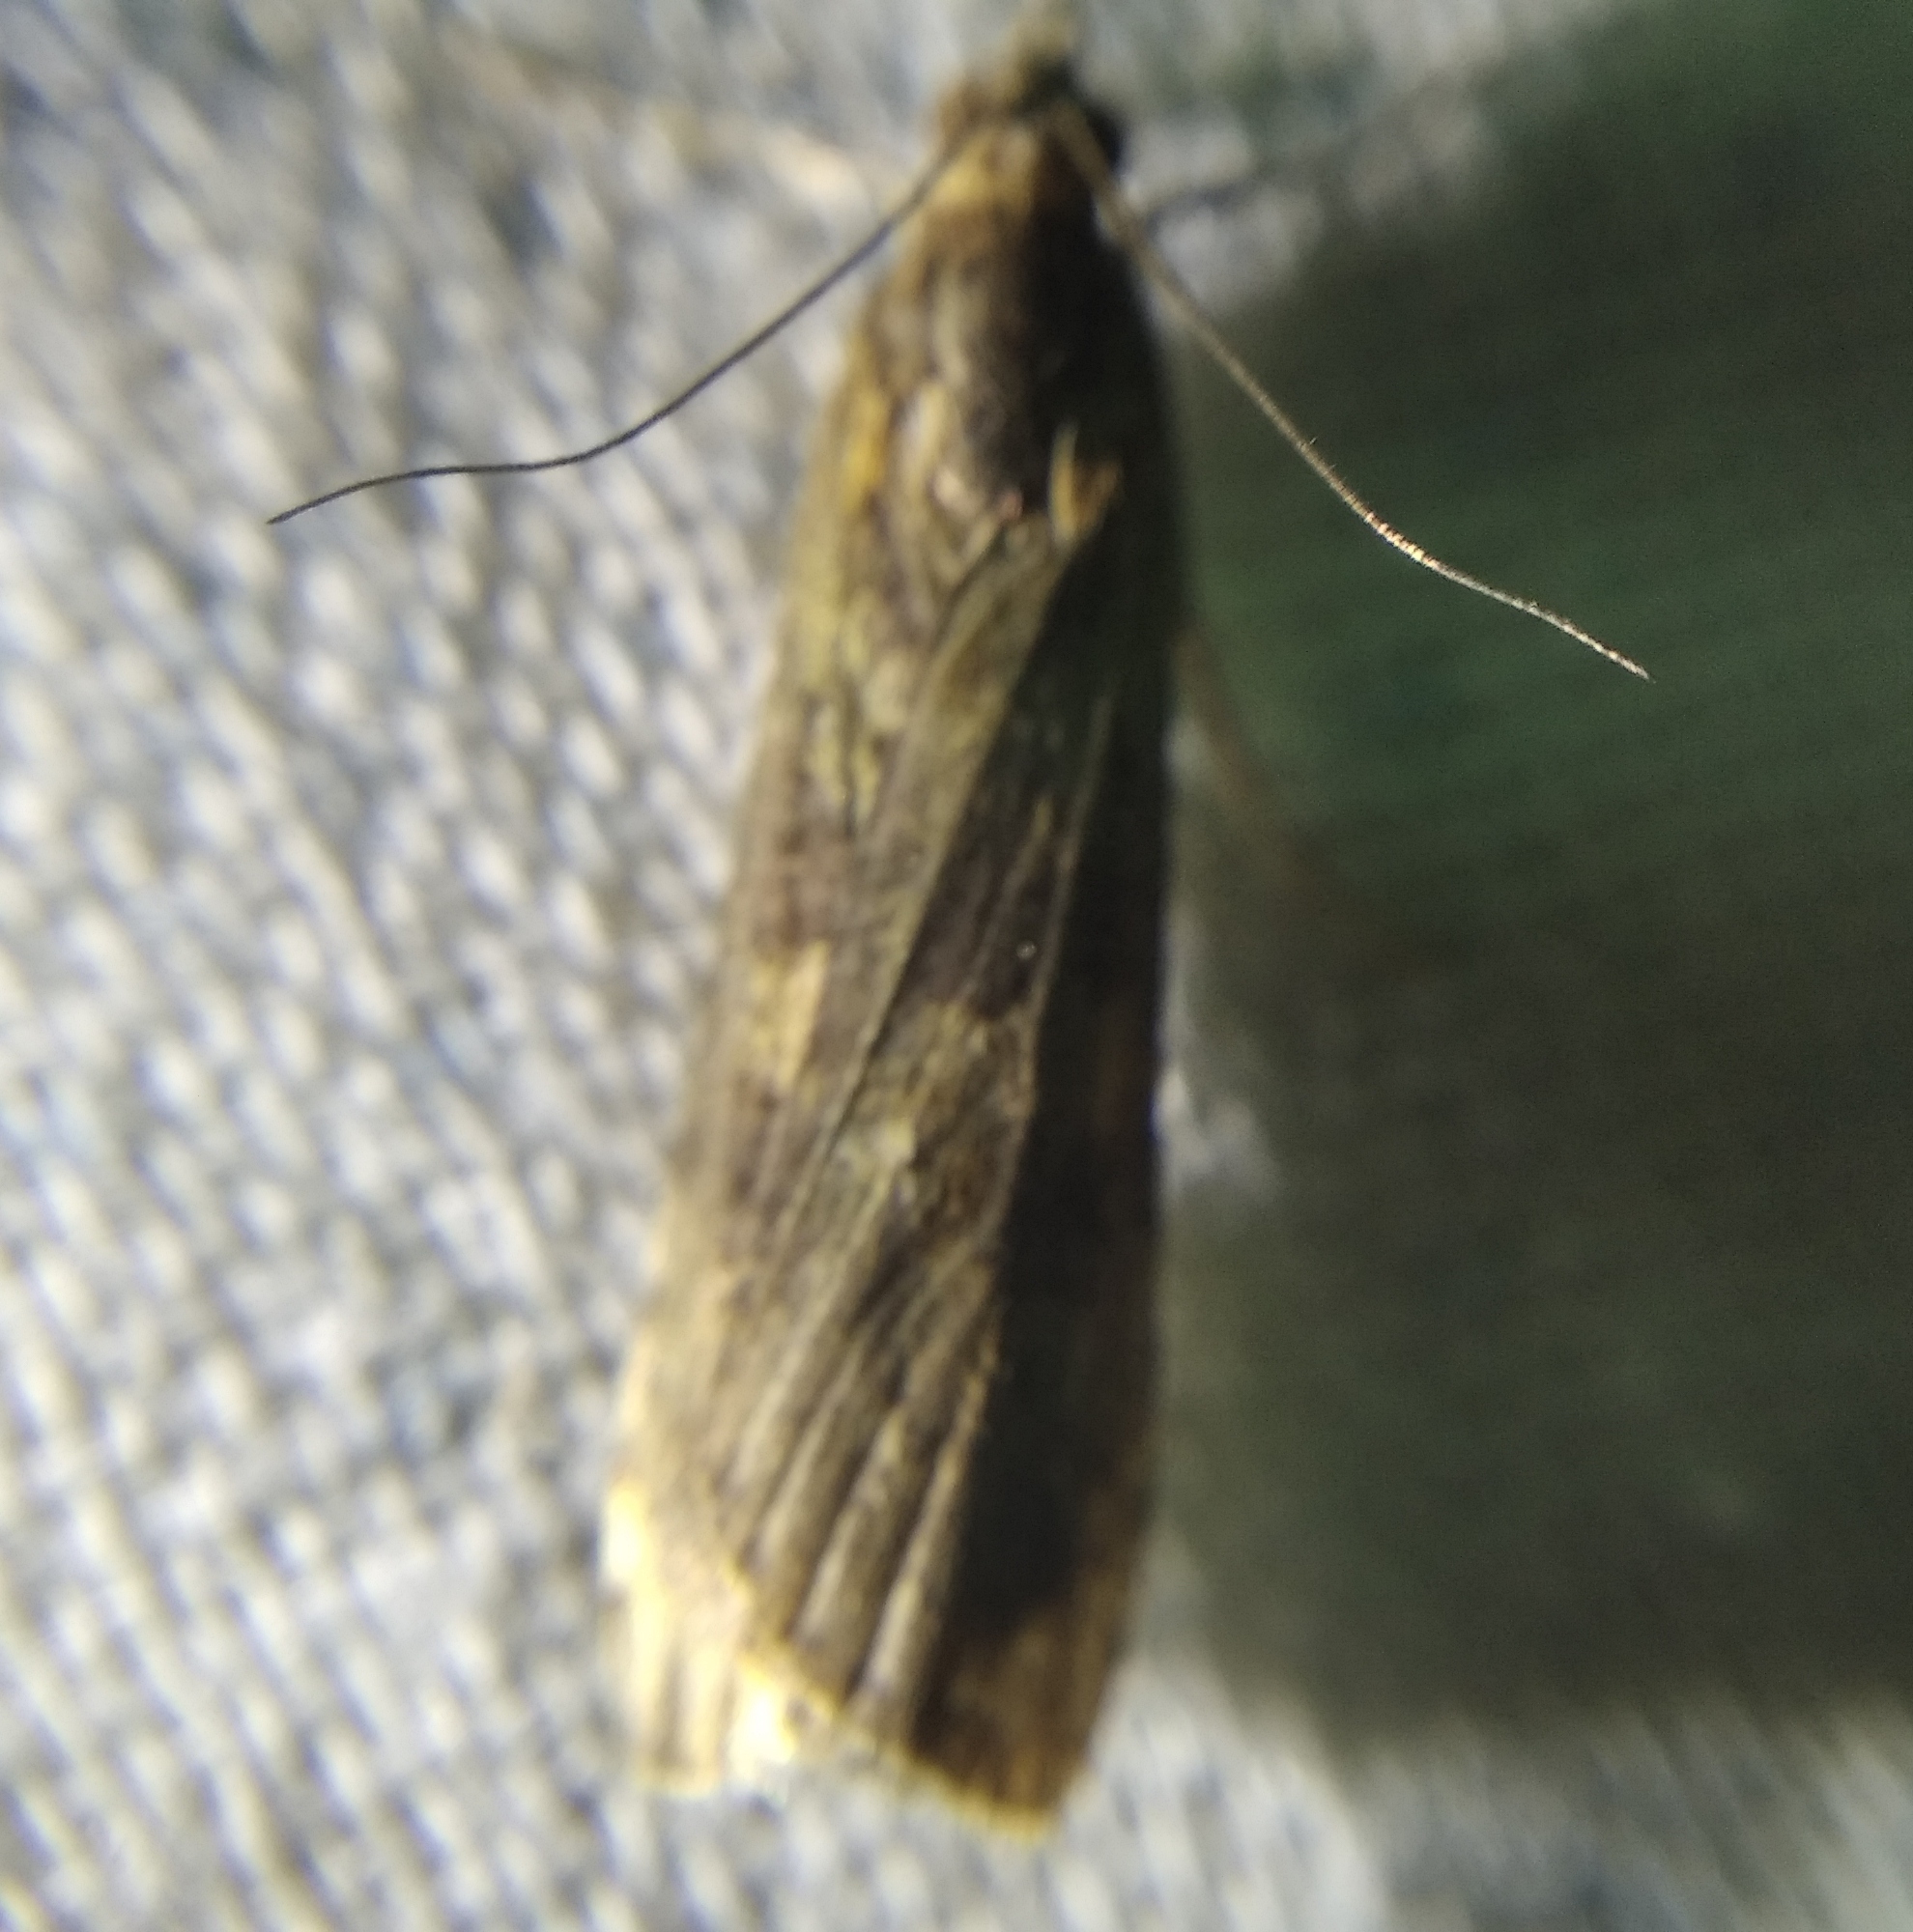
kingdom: Animalia
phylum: Arthropoda
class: Insecta
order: Lepidoptera
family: Crambidae
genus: Nomophila
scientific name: Nomophila noctuella
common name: Rush veneer
